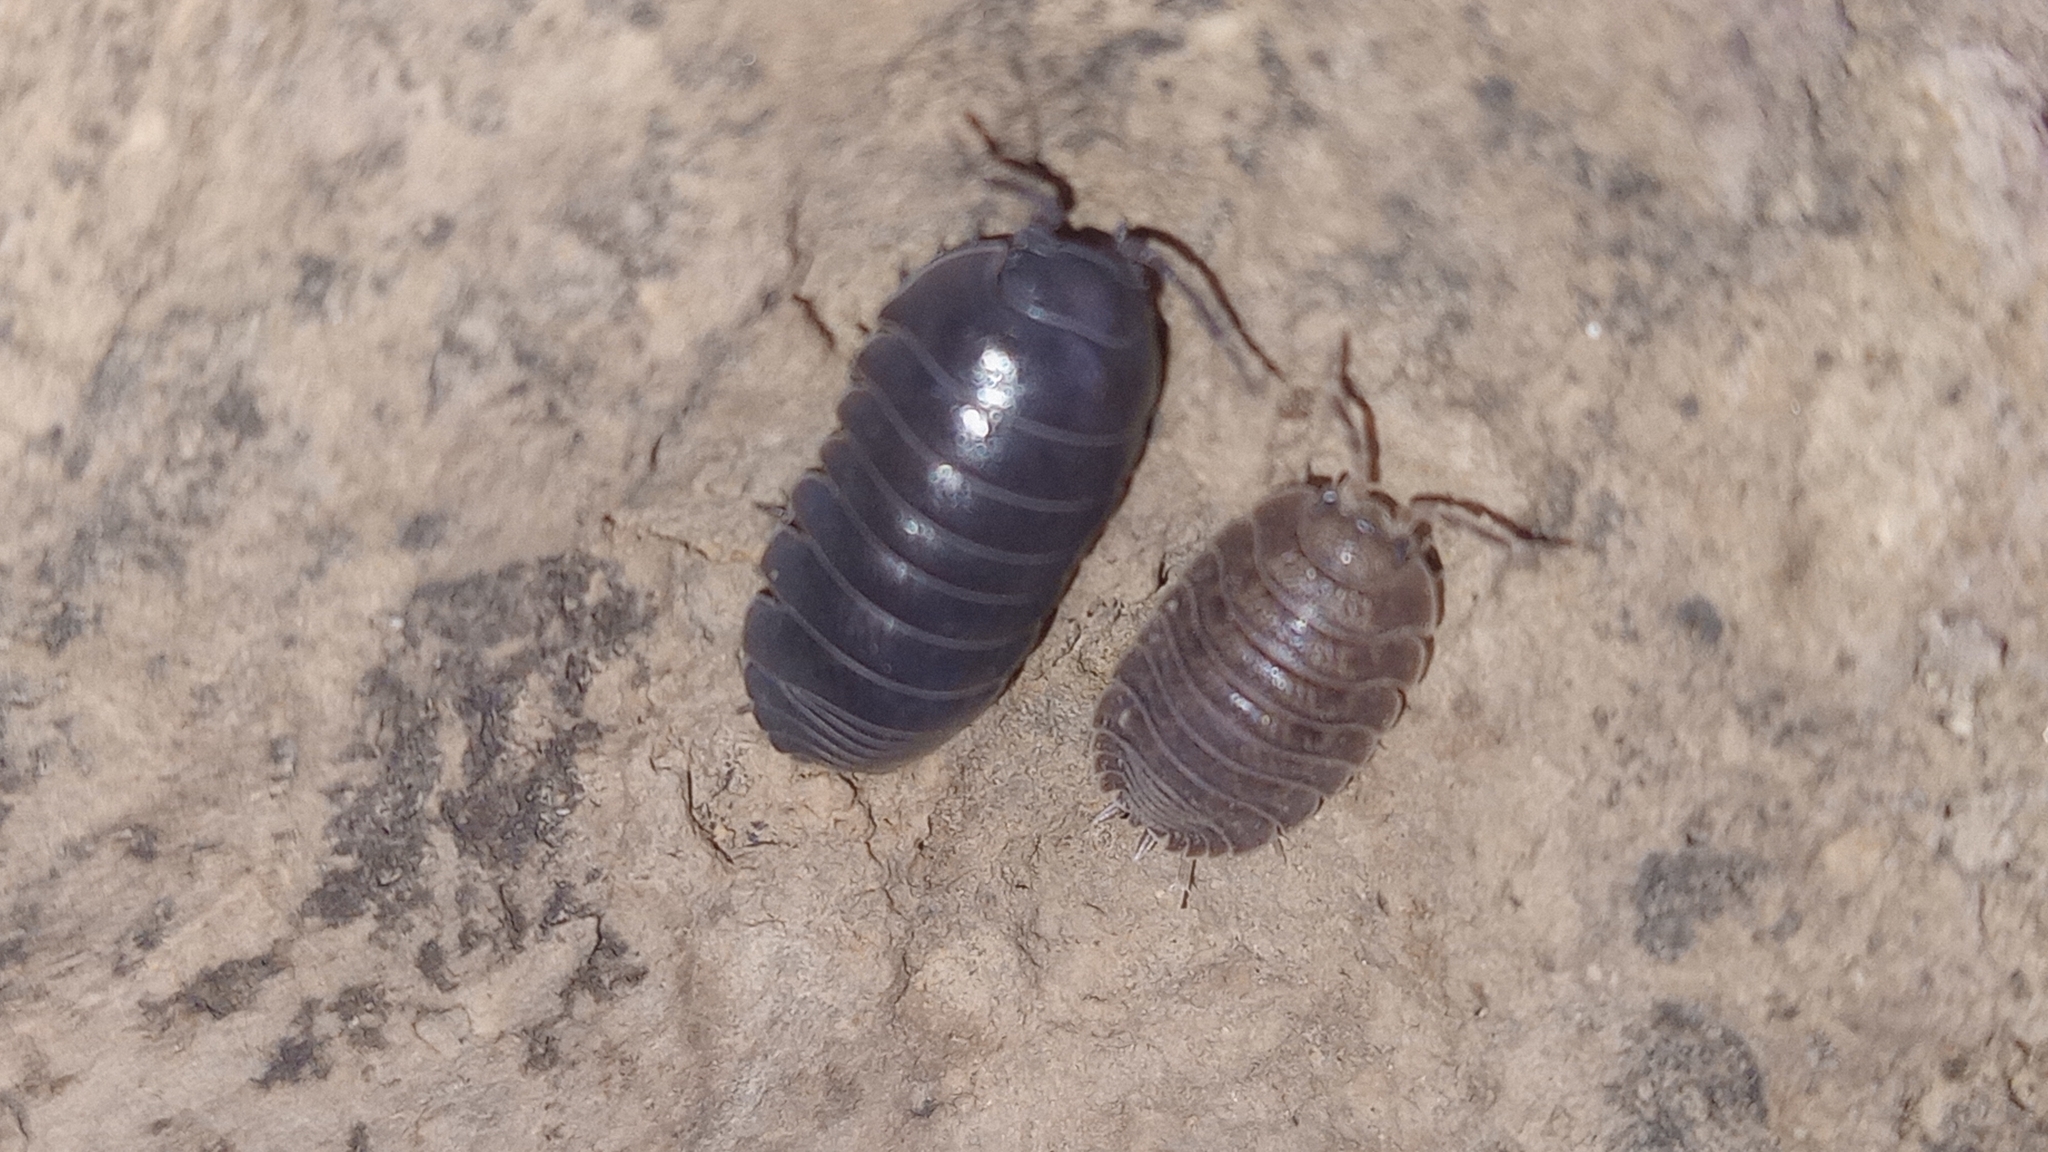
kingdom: Animalia
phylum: Arthropoda
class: Malacostraca
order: Isopoda
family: Armadillidiidae
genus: Armadillidium
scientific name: Armadillidium vulgare
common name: Common pill woodlouse
